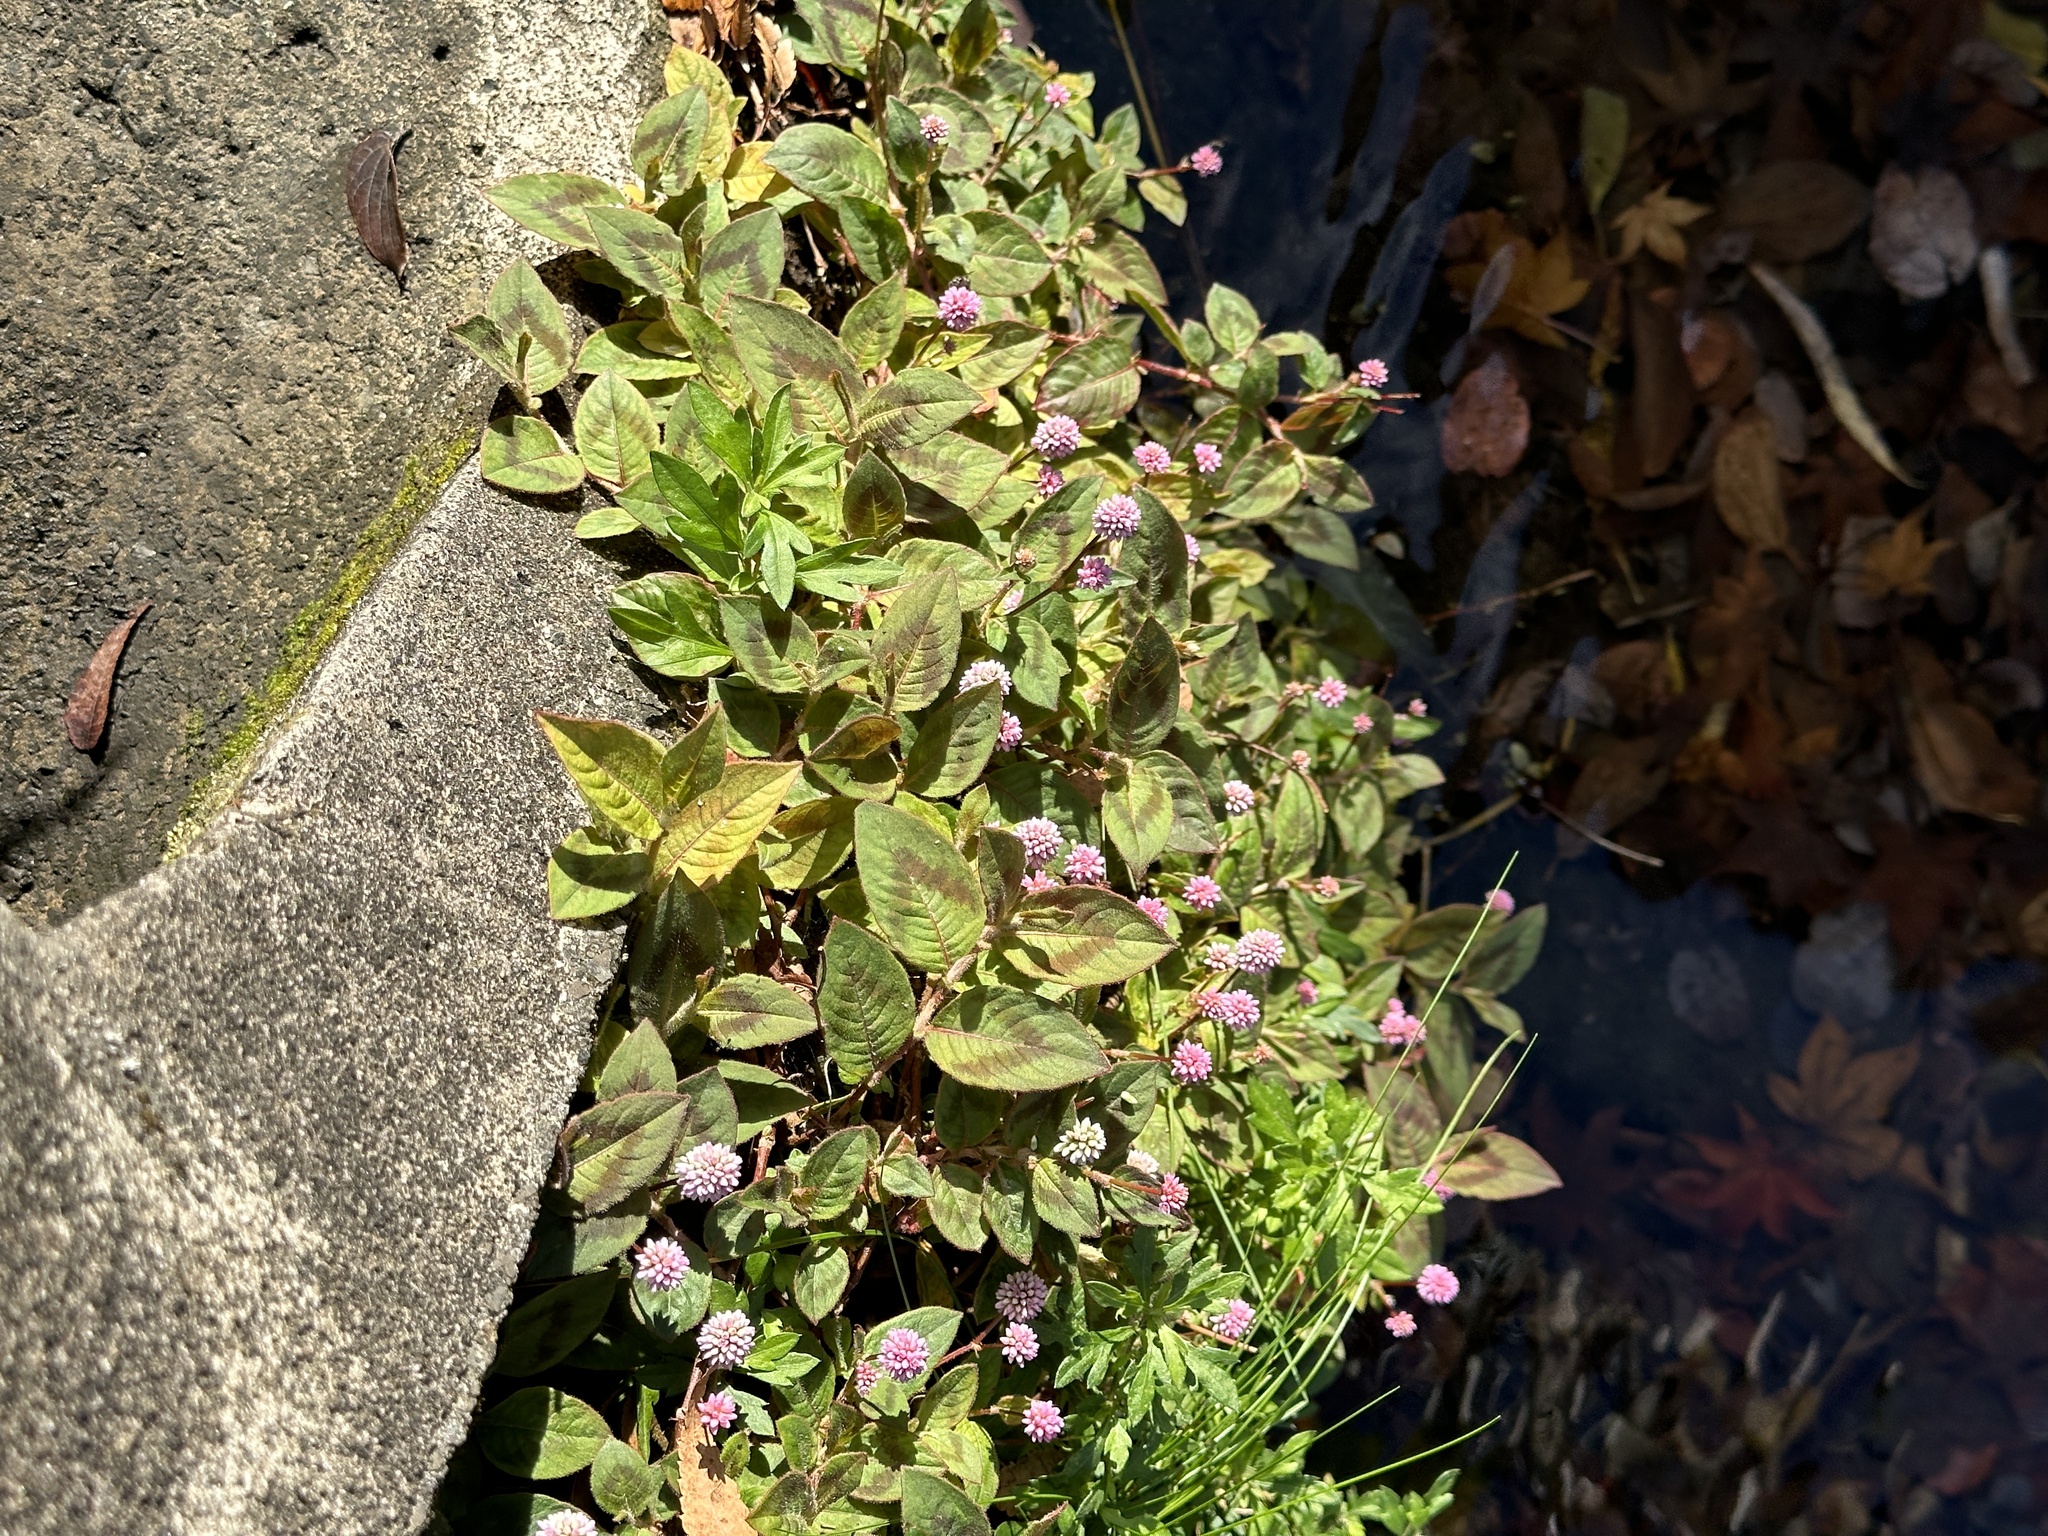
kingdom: Plantae
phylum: Tracheophyta
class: Magnoliopsida
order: Caryophyllales
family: Polygonaceae
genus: Persicaria
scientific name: Persicaria capitata
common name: Pinkhead smartweed
